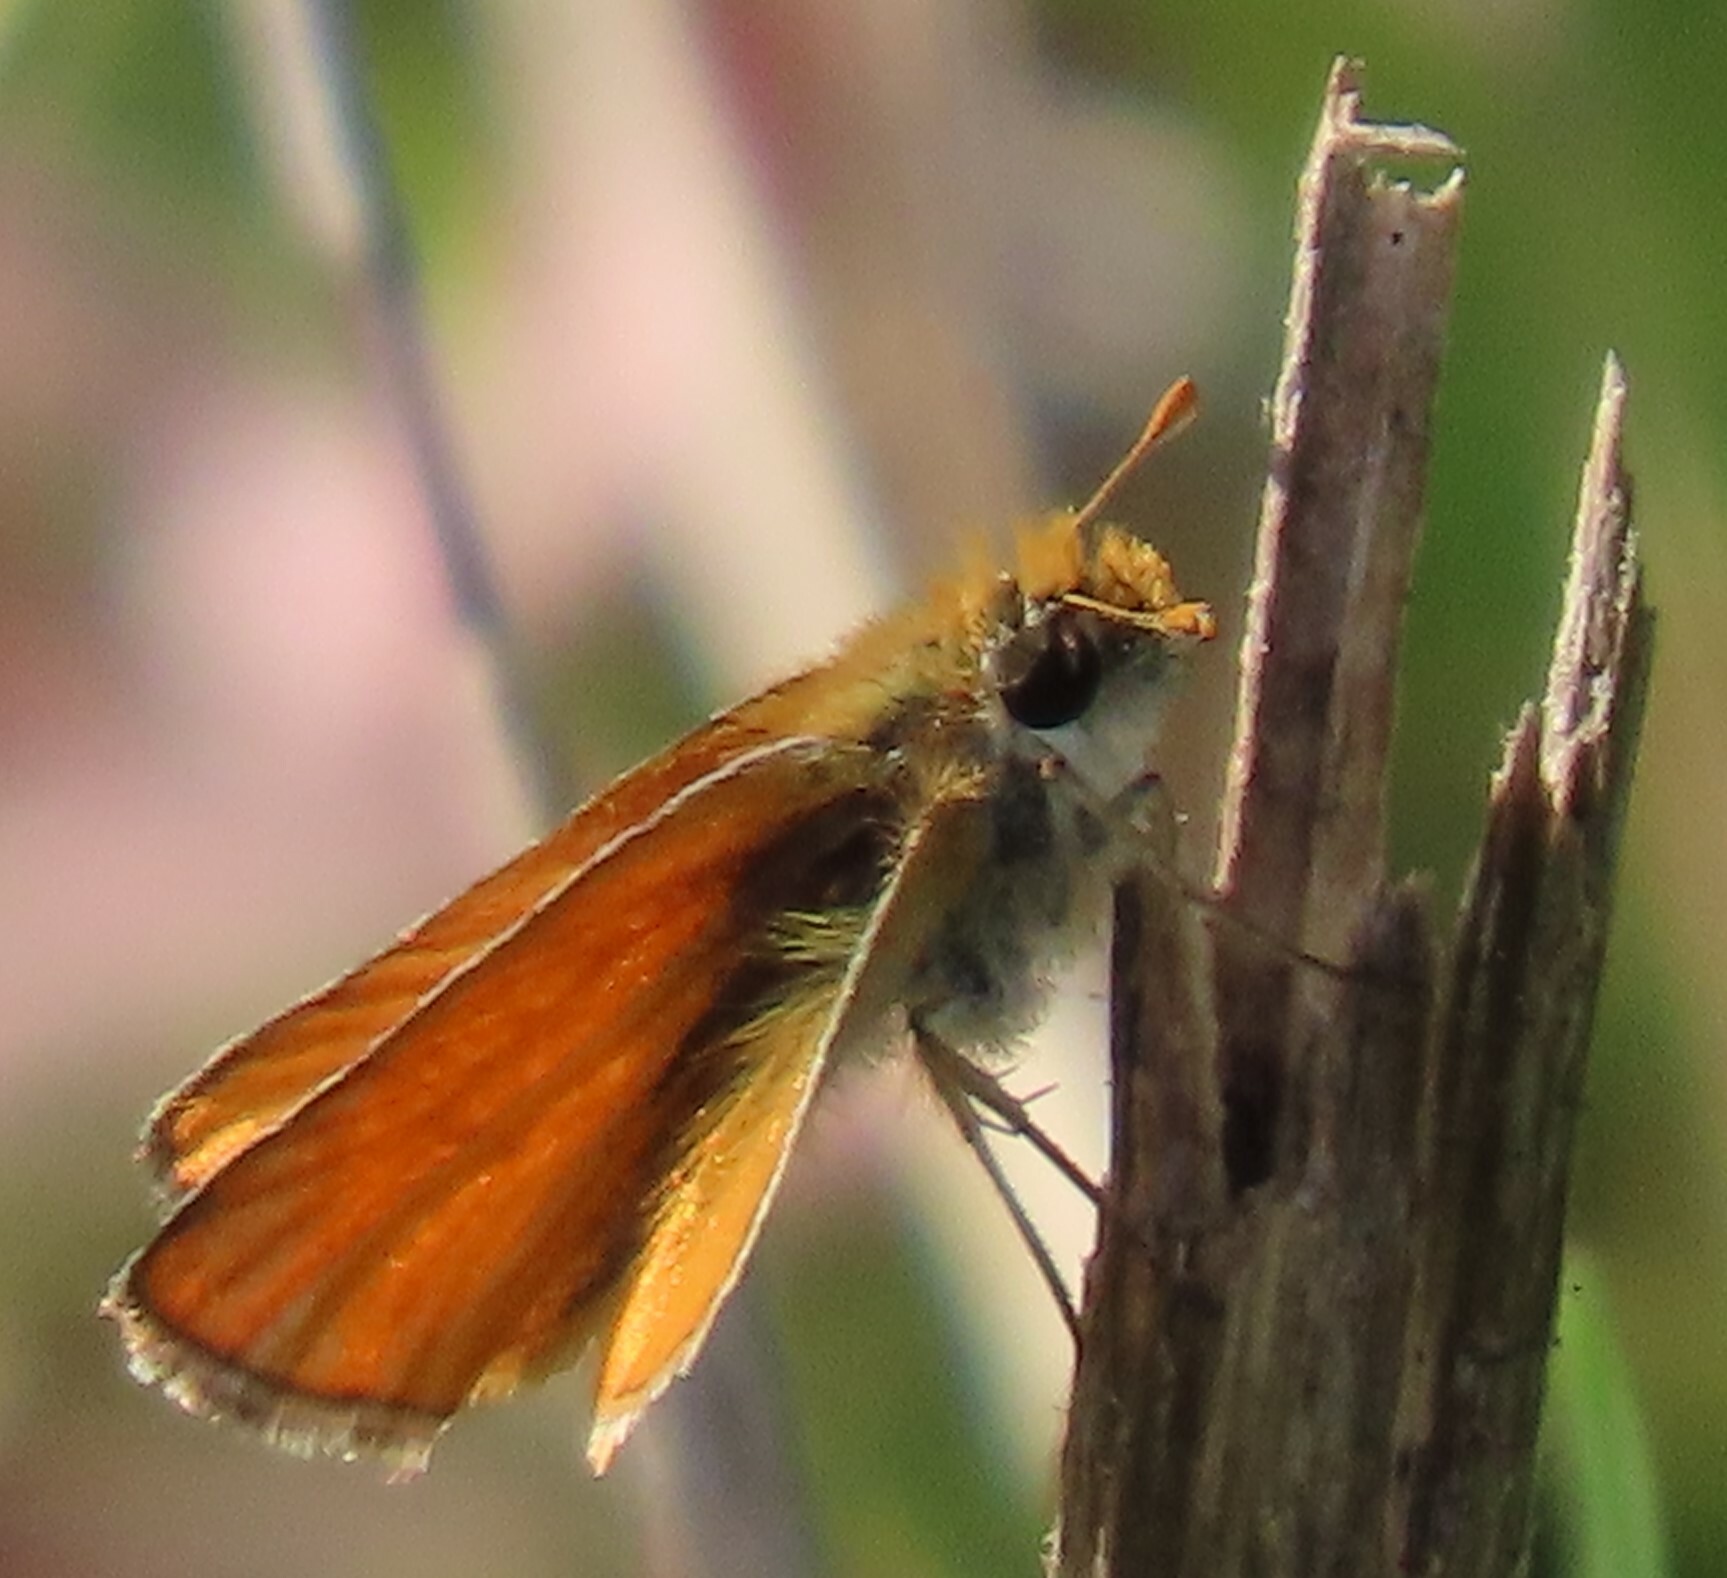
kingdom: Animalia
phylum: Arthropoda
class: Insecta
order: Lepidoptera
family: Hesperiidae
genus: Copaeodes
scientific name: Copaeodes minima
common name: Southern skipperling
